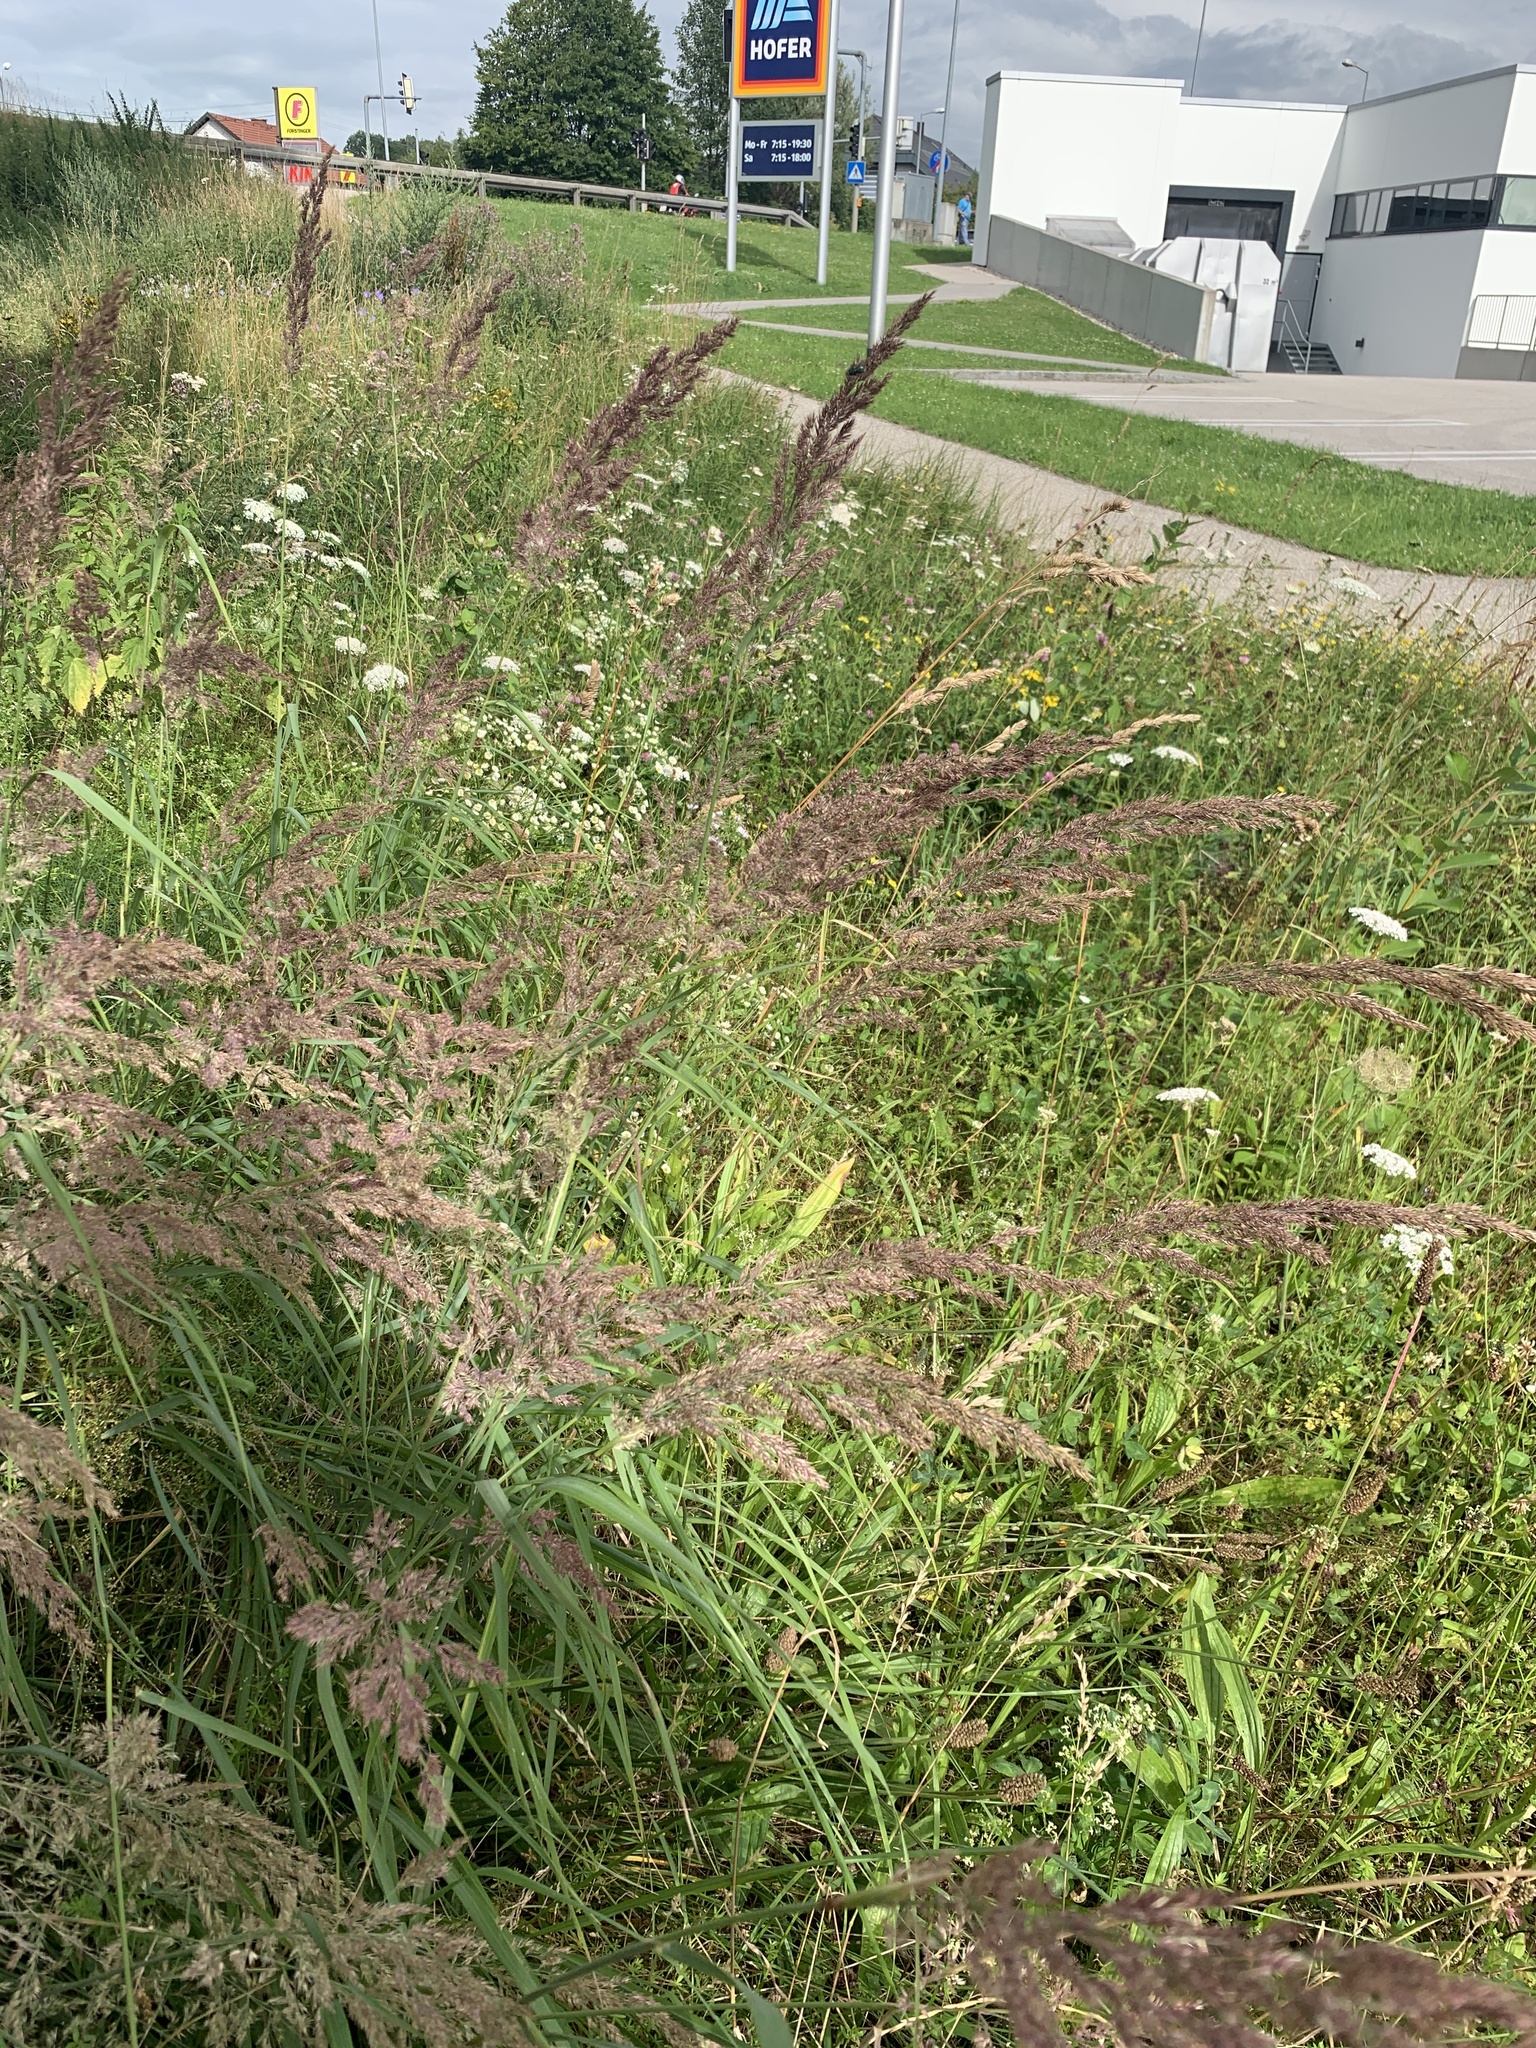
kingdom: Plantae
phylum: Tracheophyta
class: Liliopsida
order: Poales
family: Poaceae
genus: Calamagrostis
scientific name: Calamagrostis epigejos
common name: Wood small-reed
